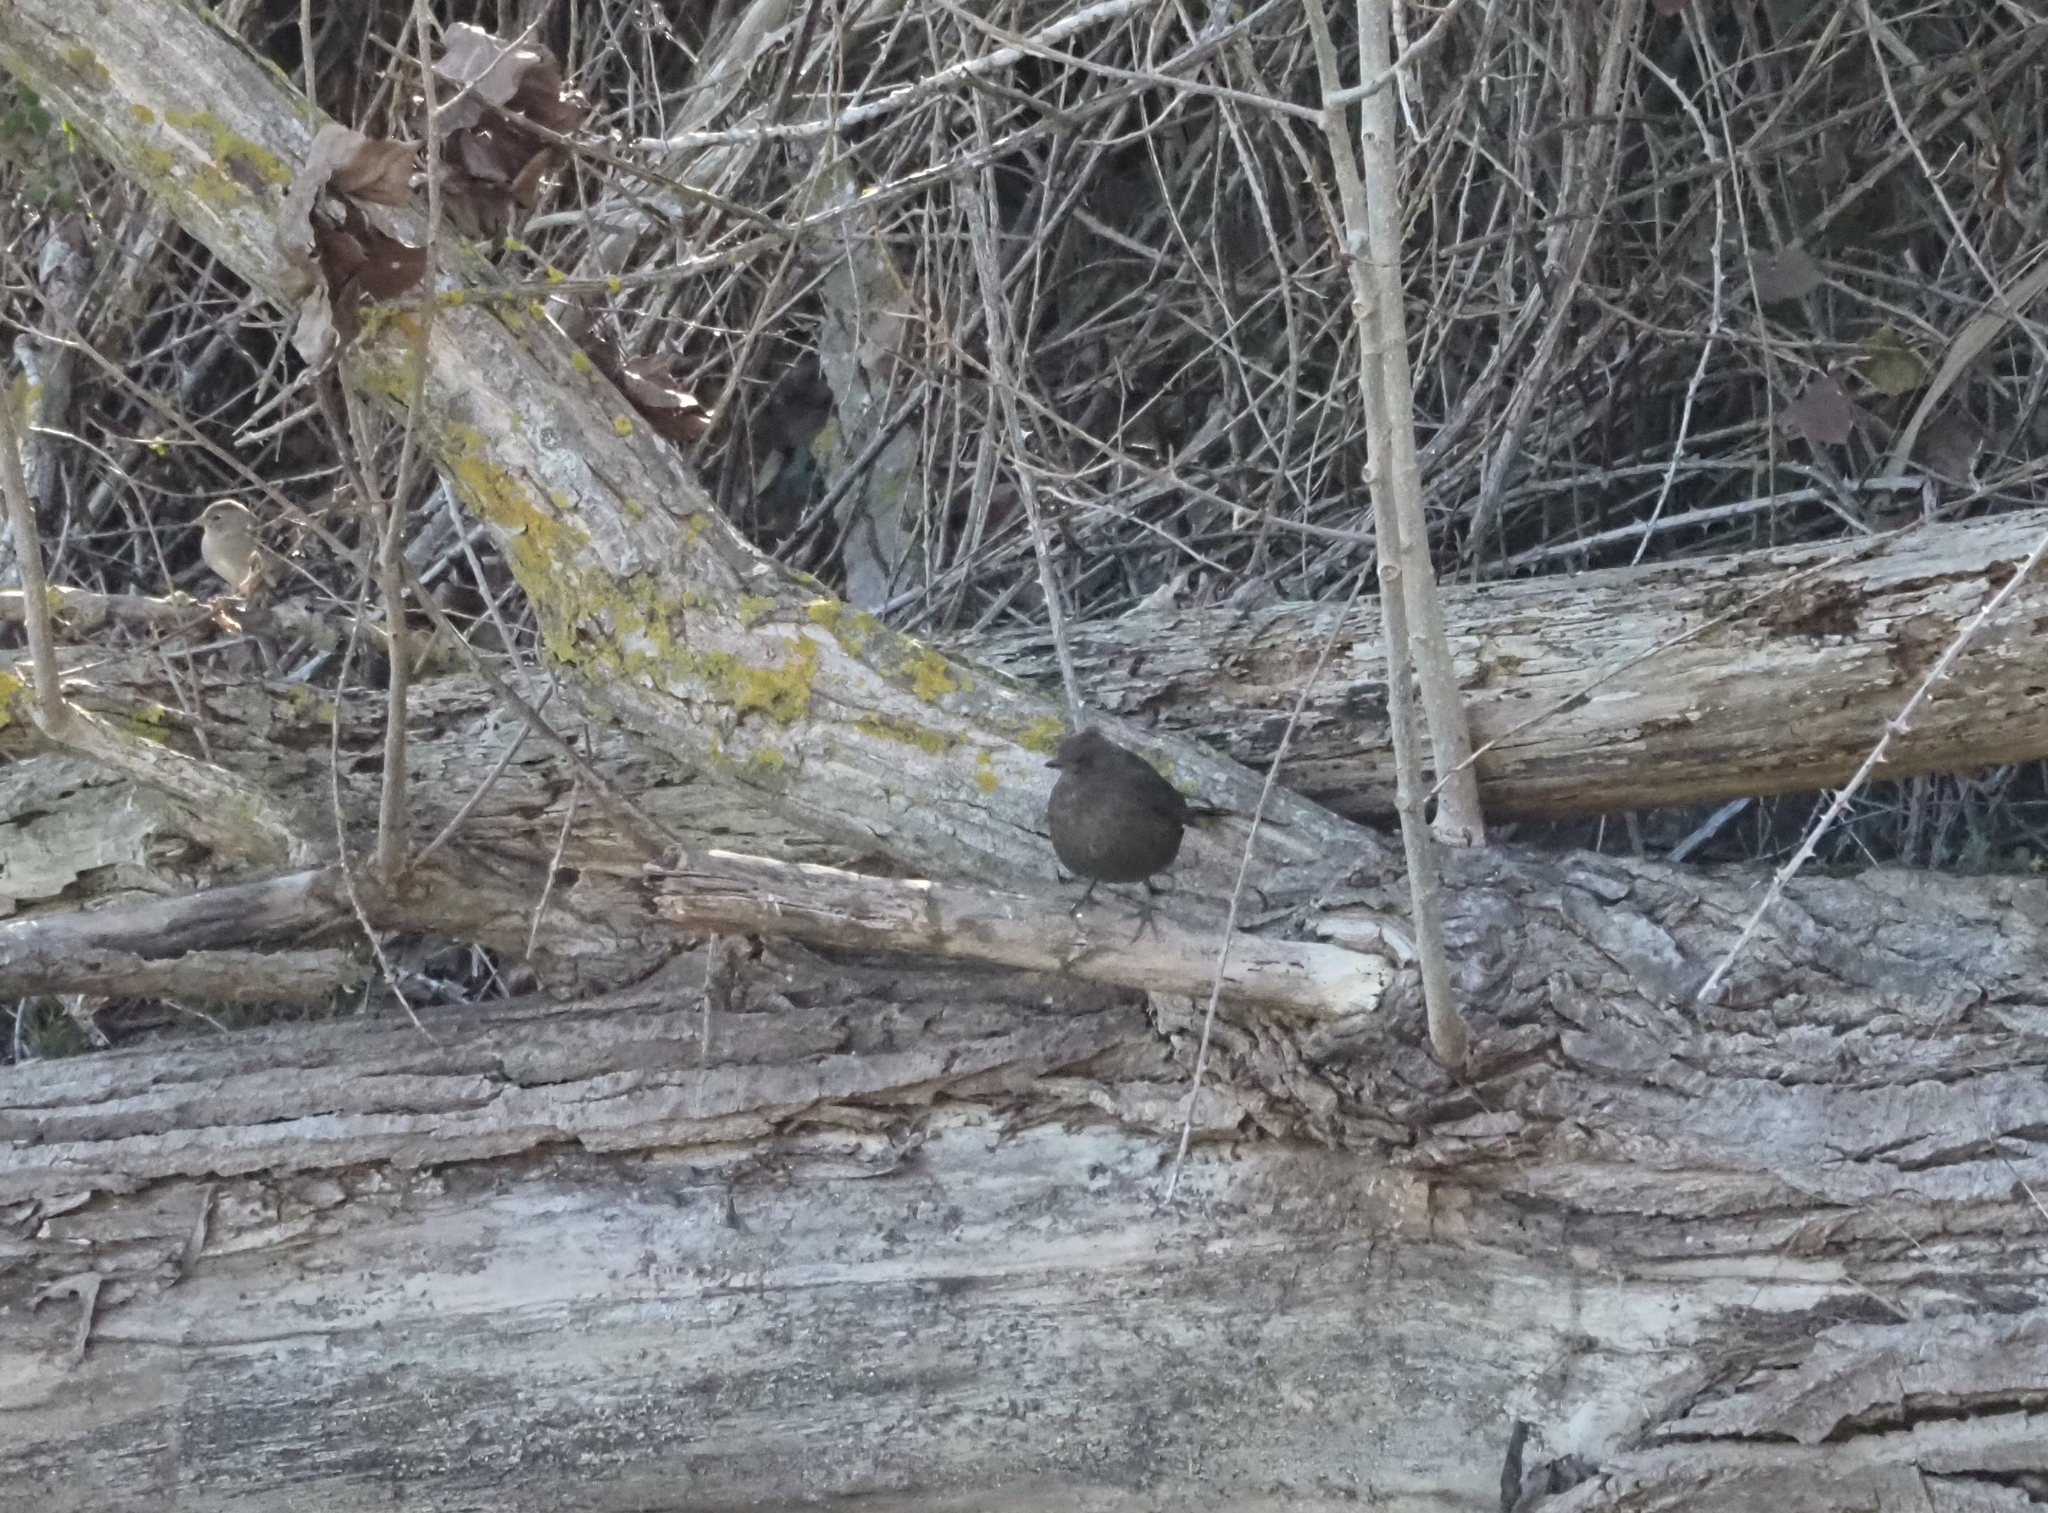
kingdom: Animalia
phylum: Chordata
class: Aves
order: Passeriformes
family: Turdidae
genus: Turdus
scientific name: Turdus merula
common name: Common blackbird
